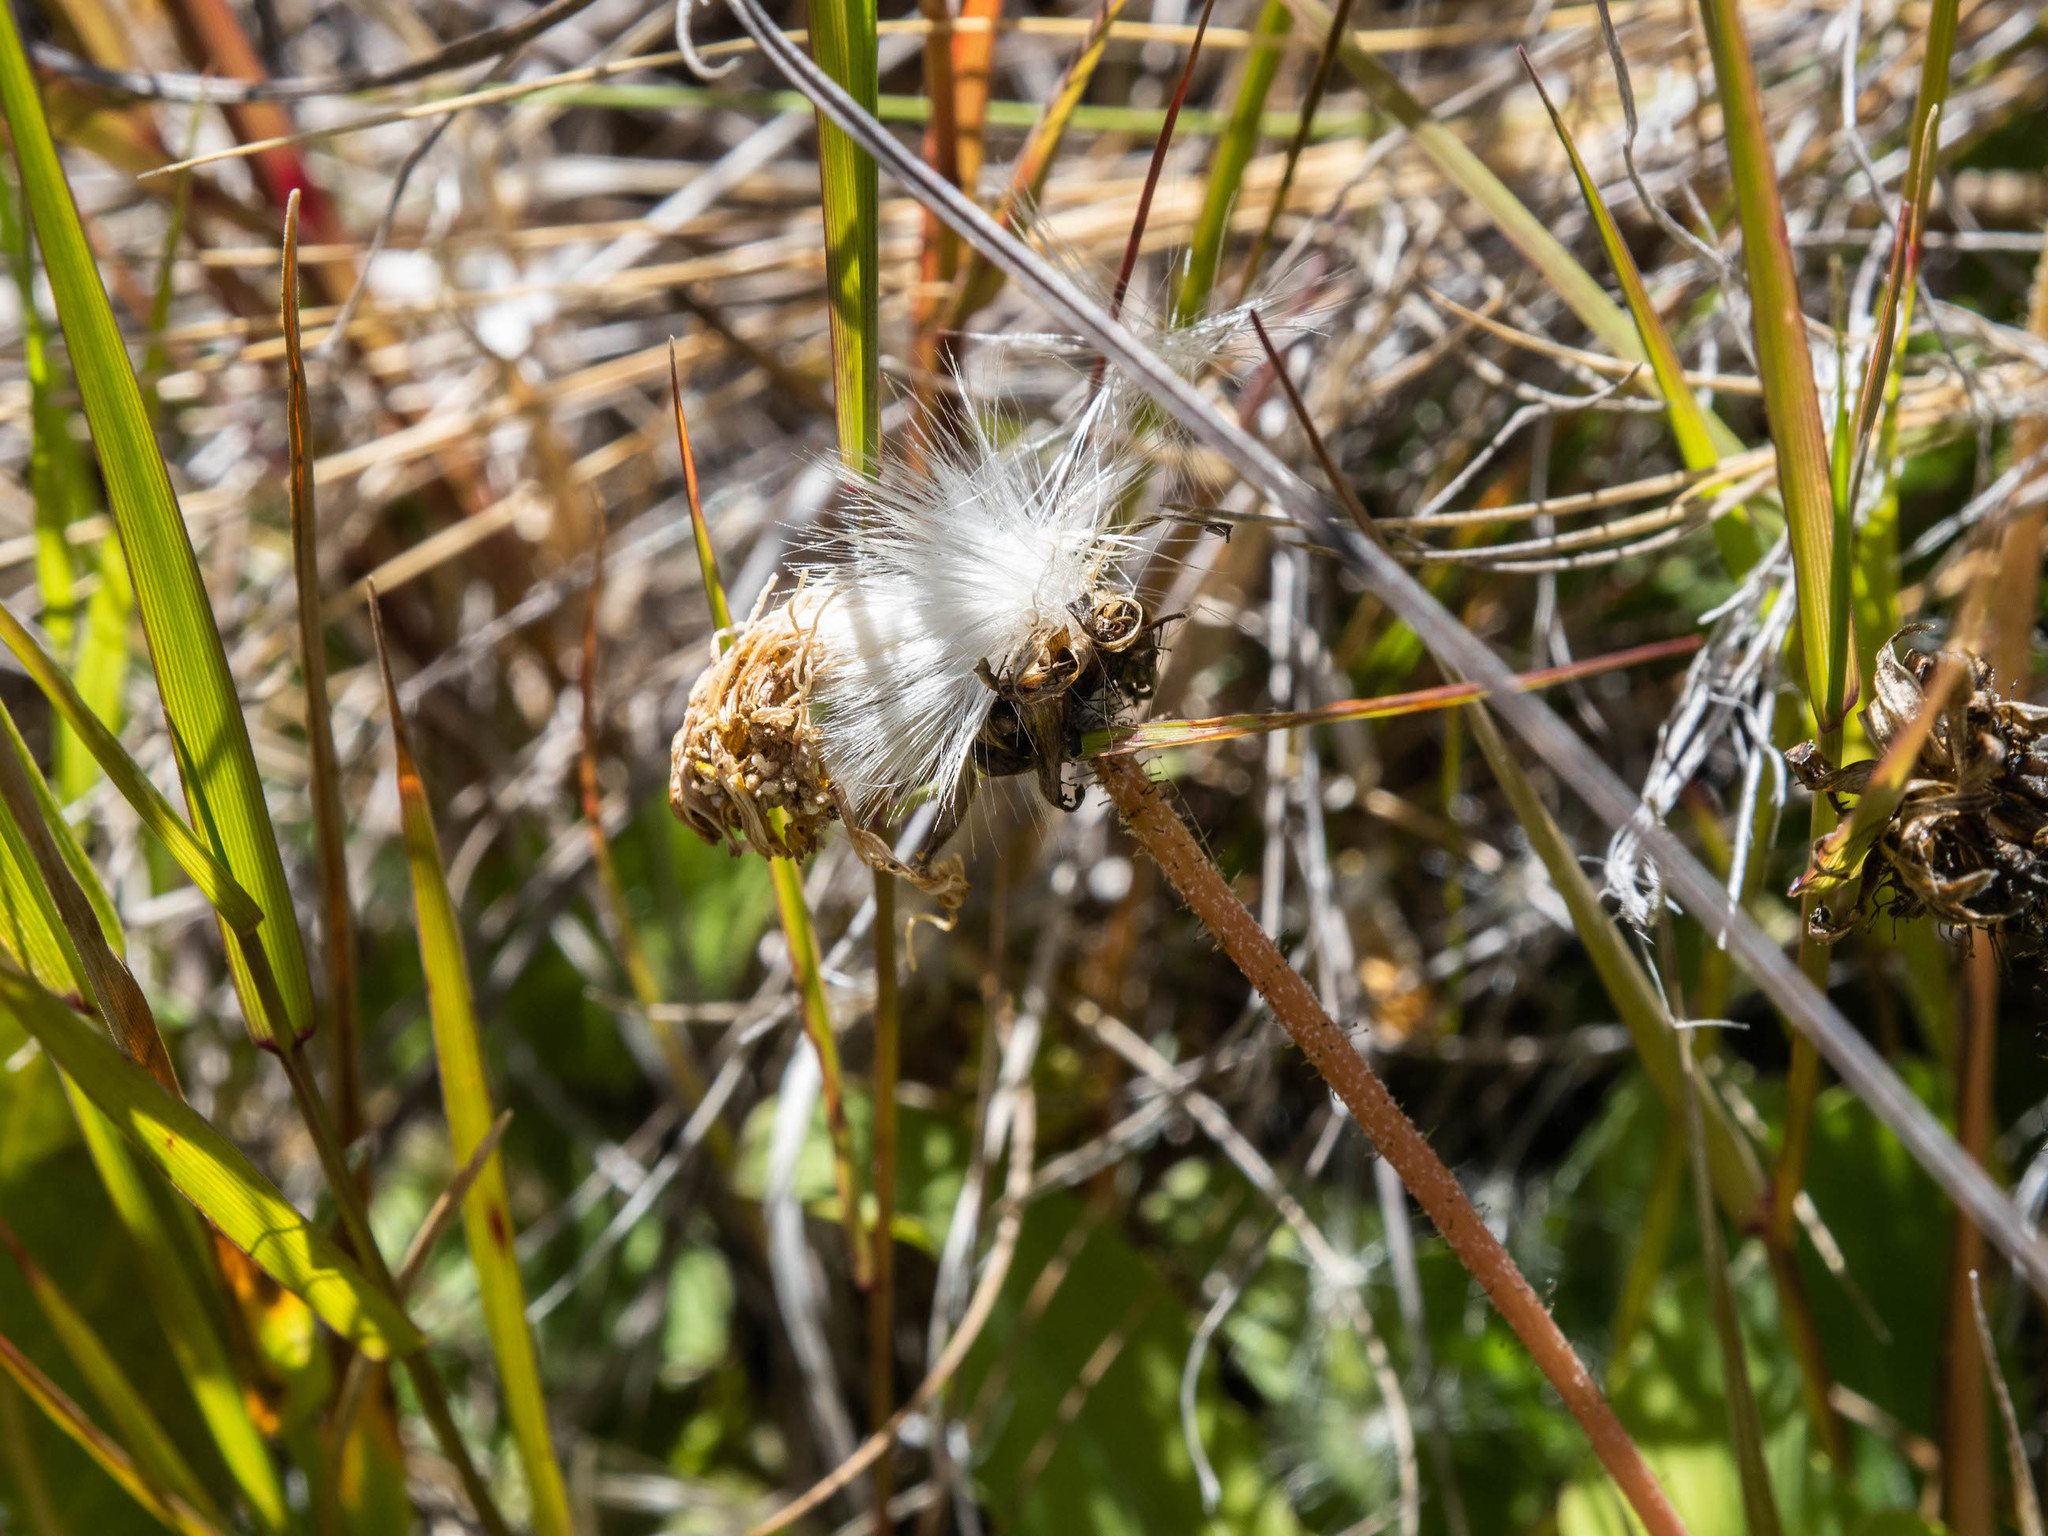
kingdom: Plantae
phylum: Tracheophyta
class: Magnoliopsida
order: Asterales
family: Asteraceae
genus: Sonchus
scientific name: Sonchus novae-zelandiae
